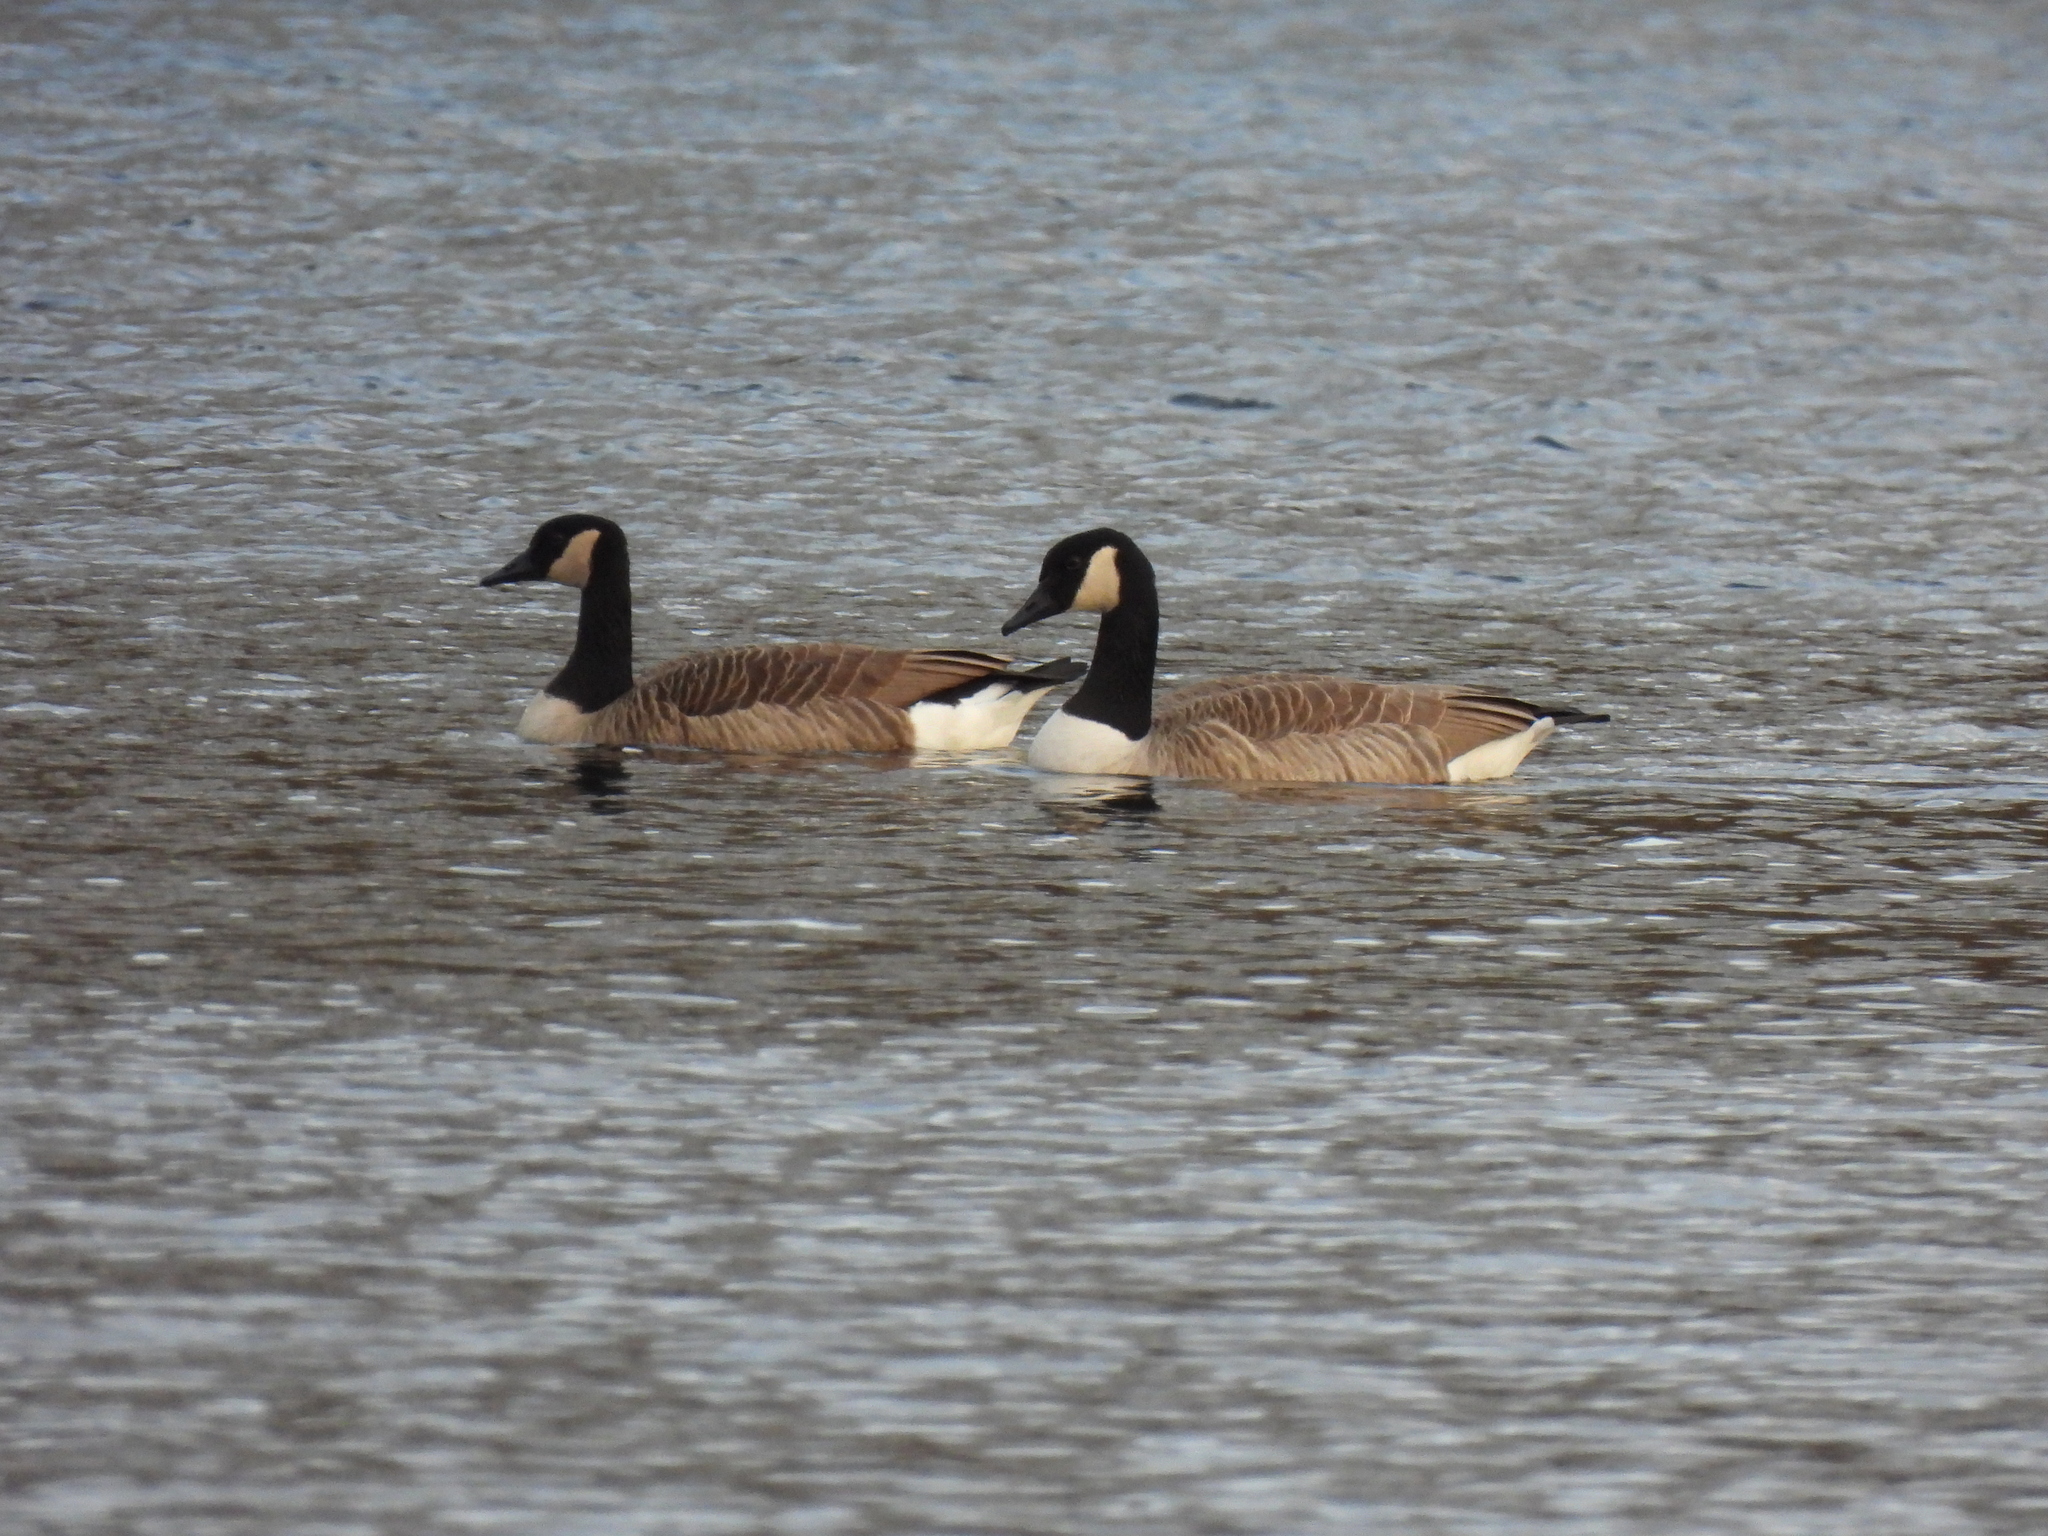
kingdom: Animalia
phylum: Chordata
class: Aves
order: Anseriformes
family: Anatidae
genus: Branta
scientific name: Branta canadensis
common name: Canada goose
